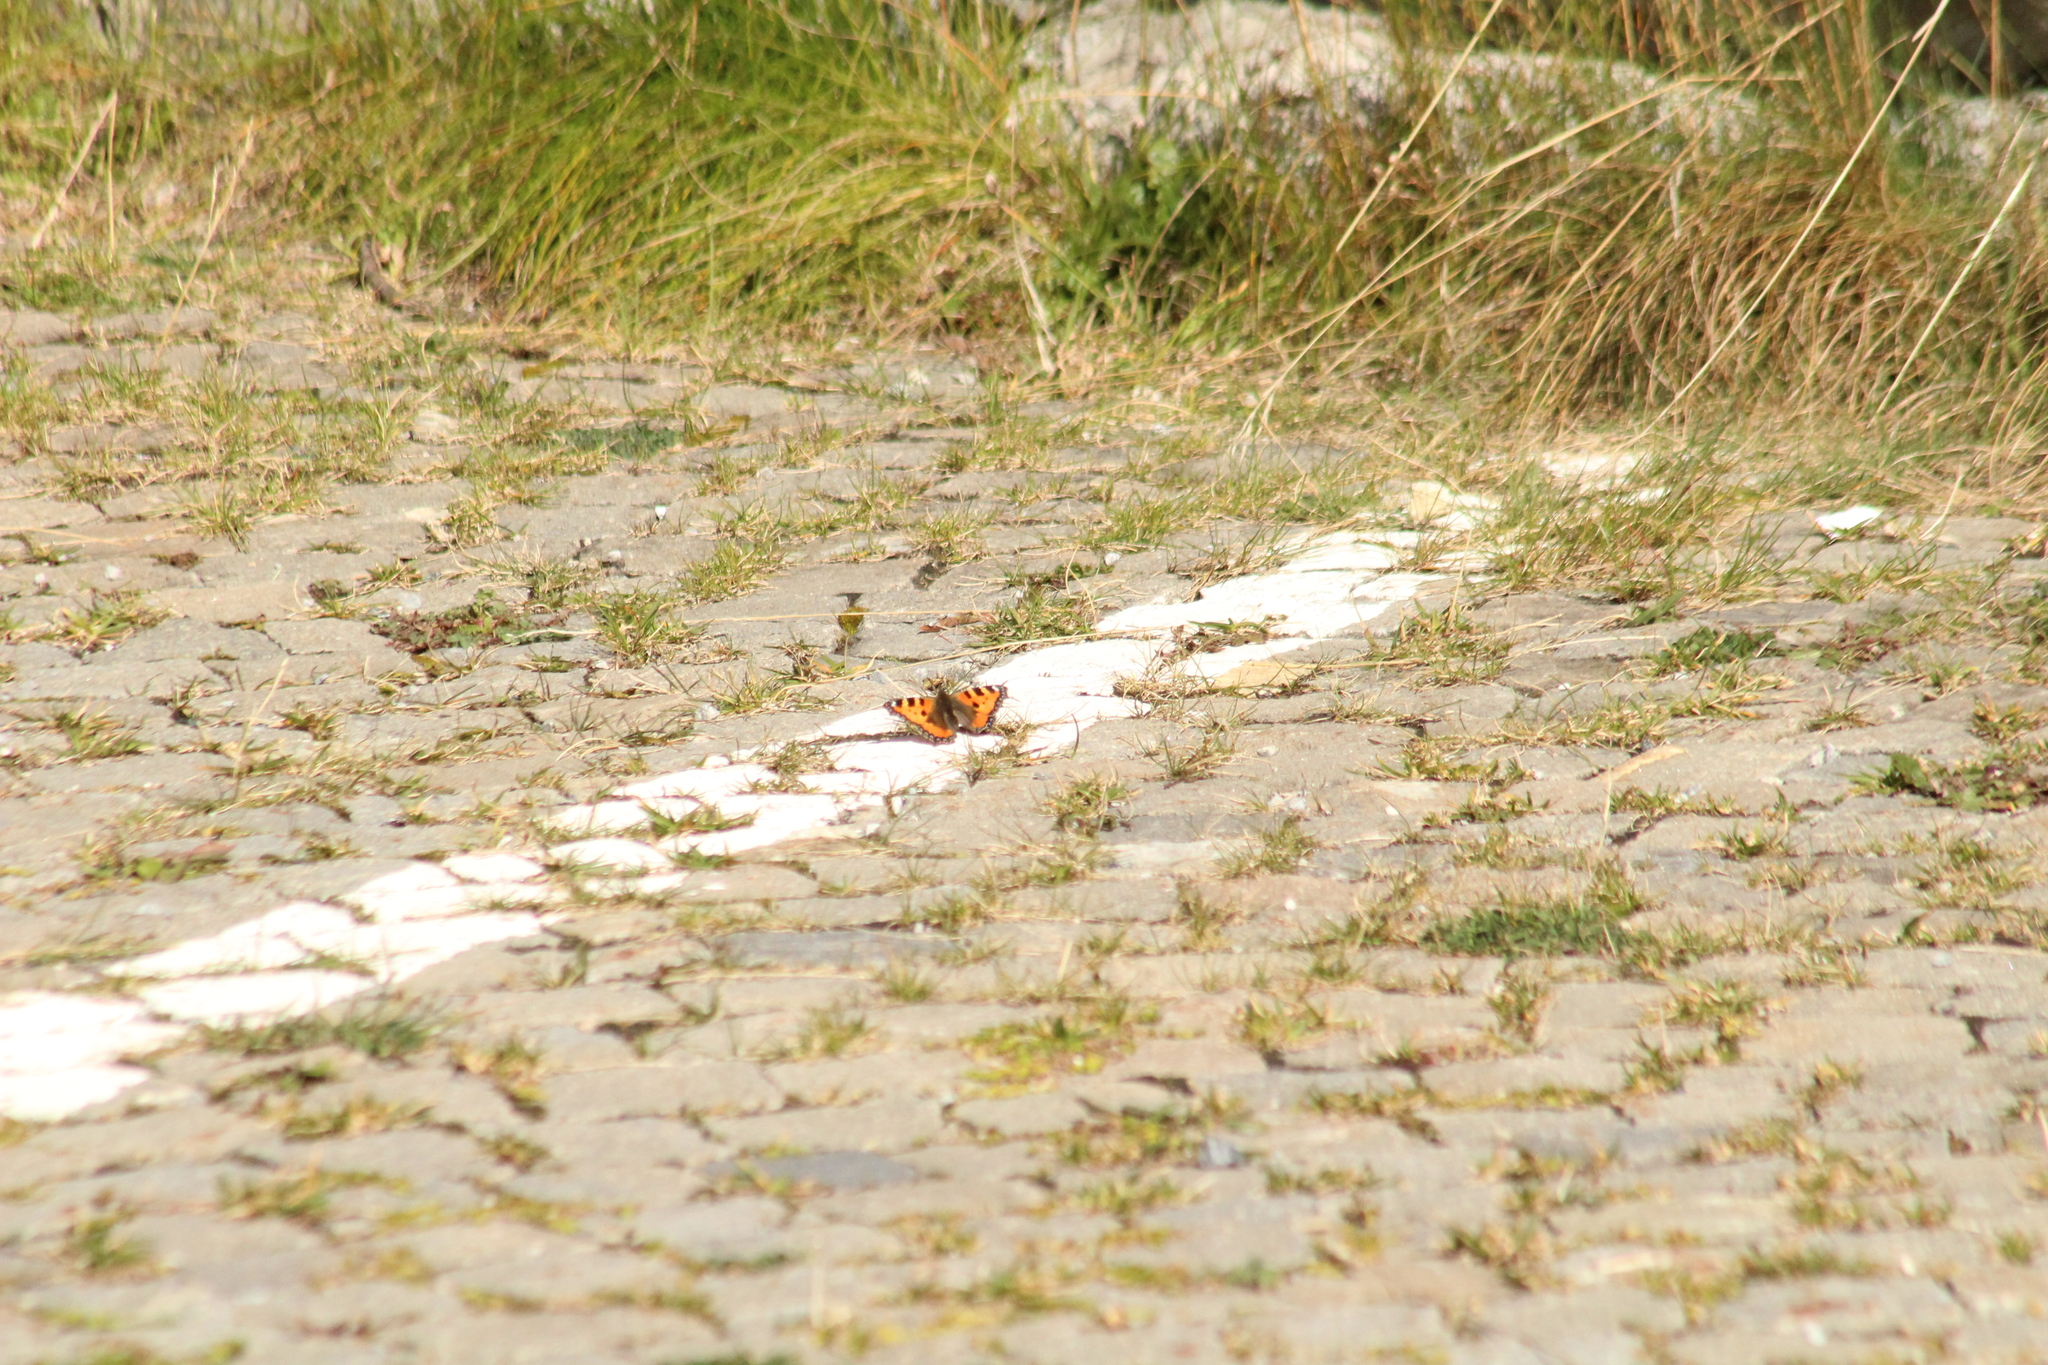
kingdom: Animalia
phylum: Arthropoda
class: Insecta
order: Lepidoptera
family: Nymphalidae
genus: Aglais
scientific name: Aglais urticae
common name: Small tortoiseshell
